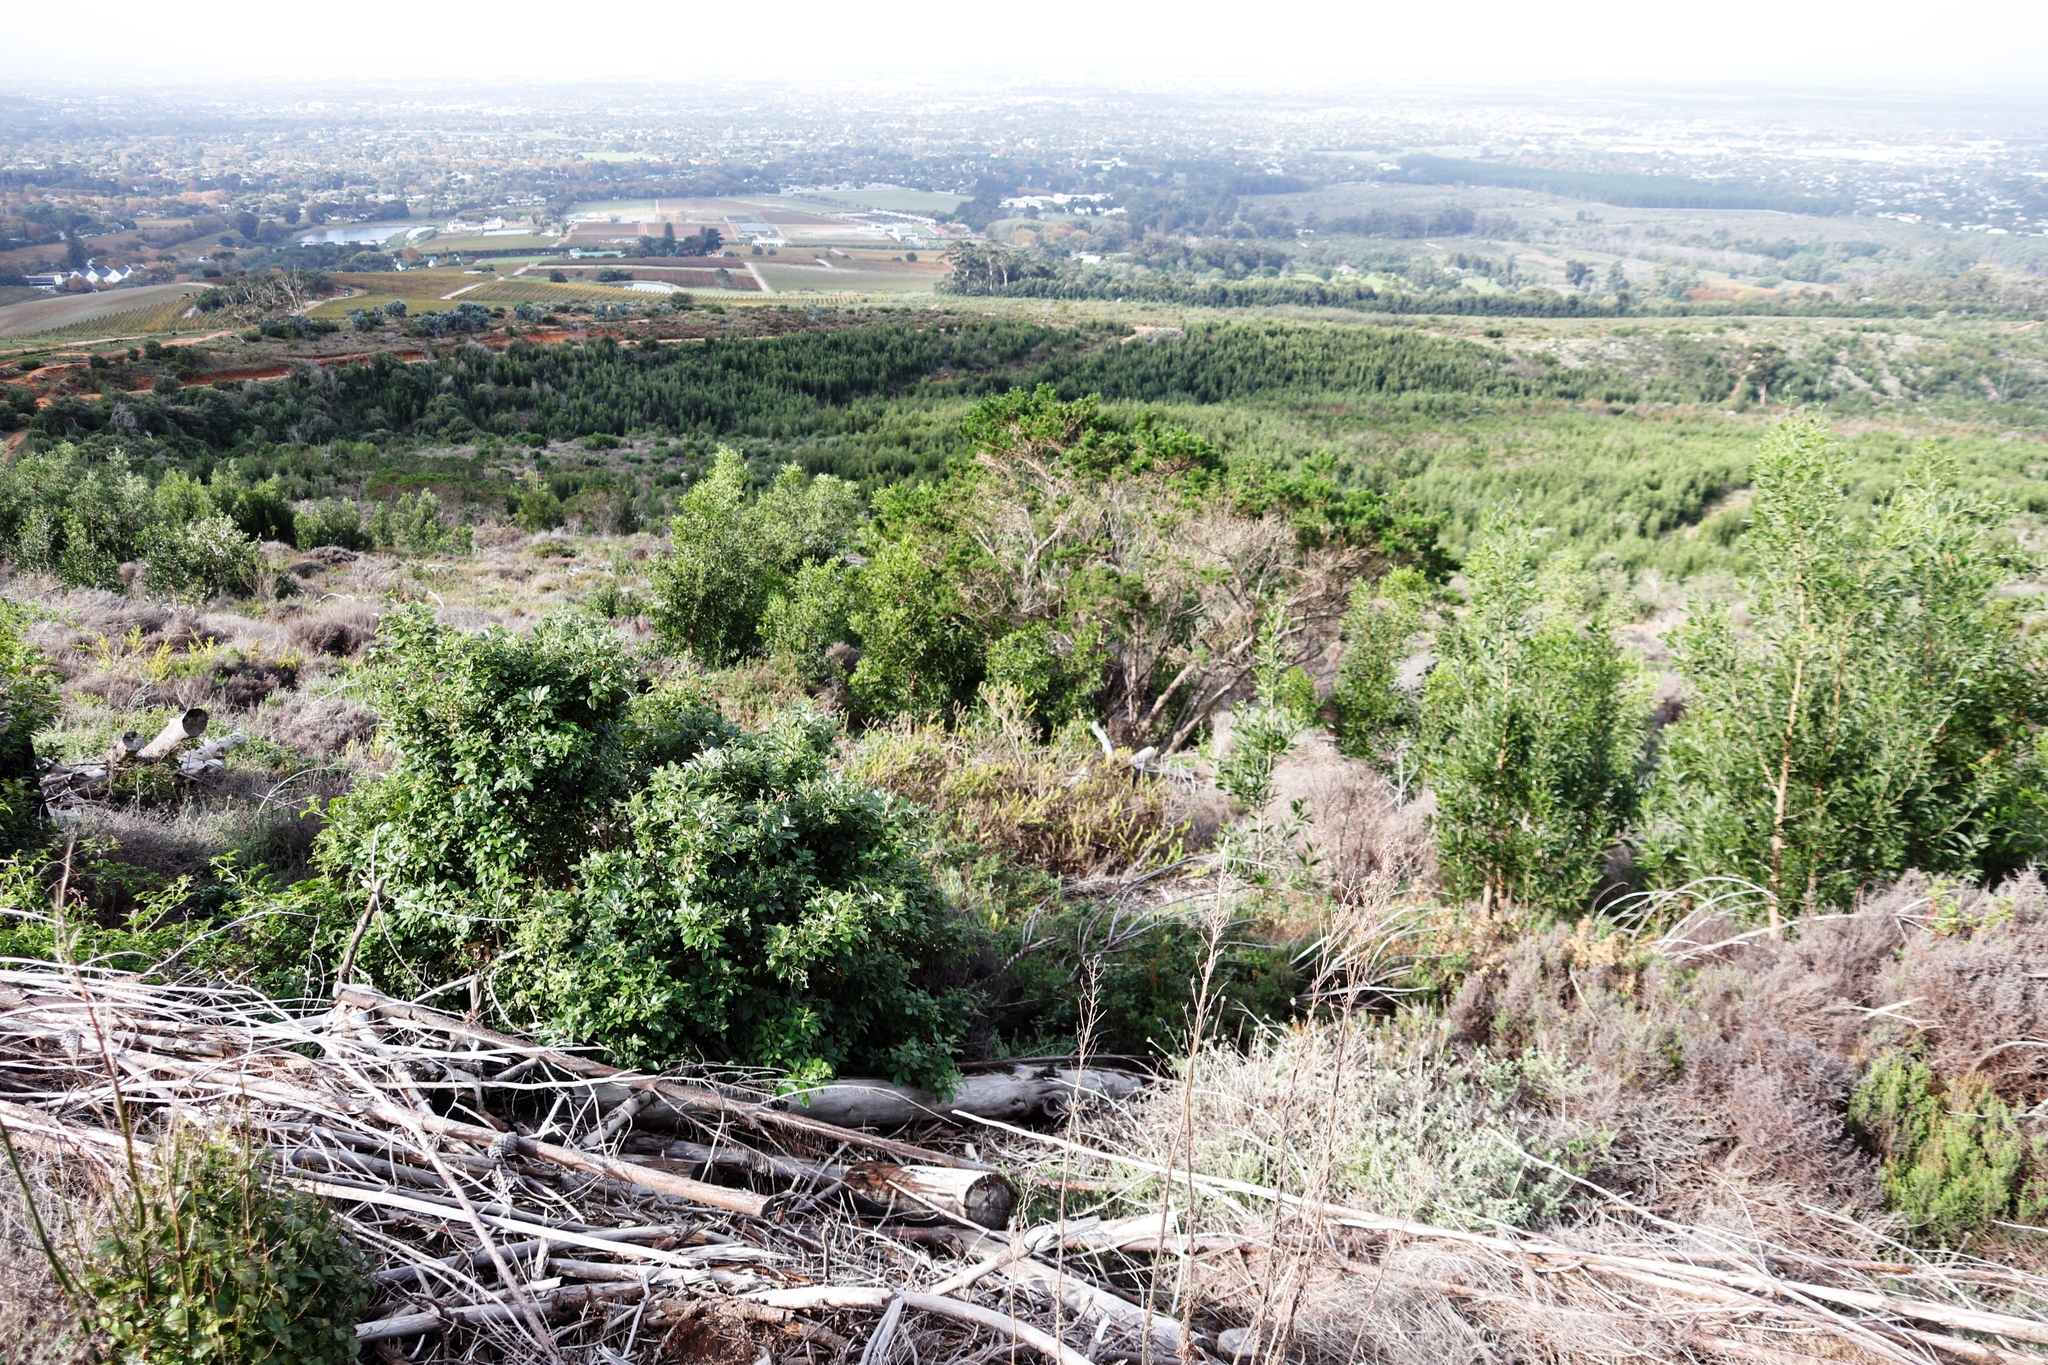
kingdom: Plantae
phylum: Tracheophyta
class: Magnoliopsida
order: Malpighiales
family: Achariaceae
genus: Kiggelaria
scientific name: Kiggelaria africana
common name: Wild peach
